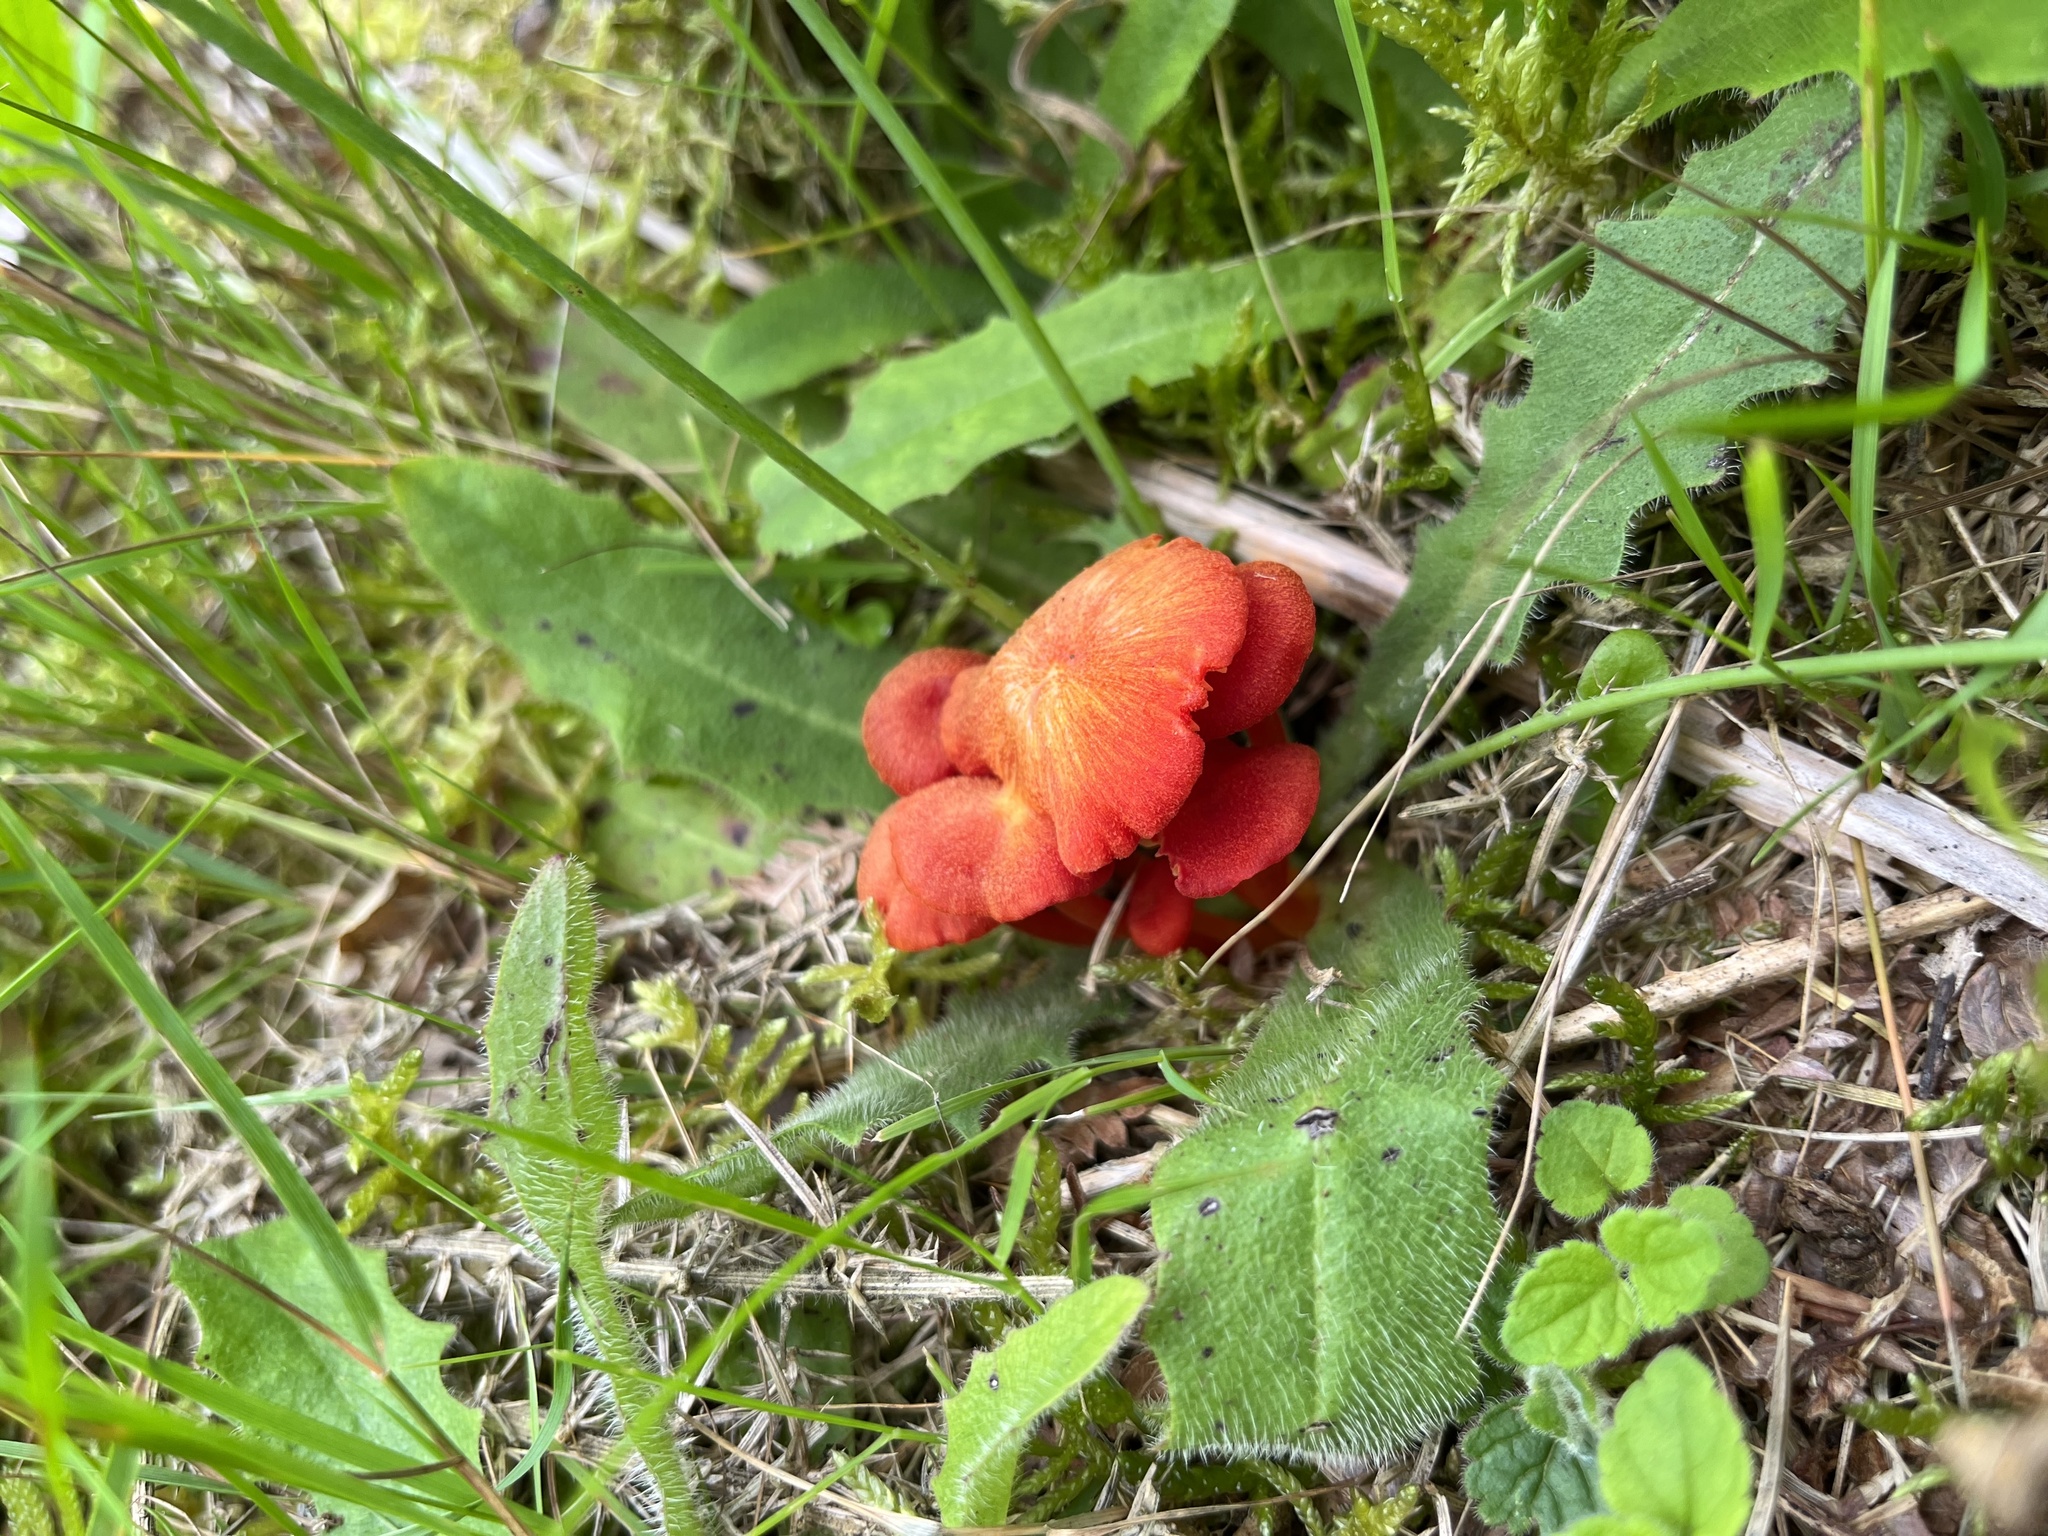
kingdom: Fungi
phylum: Basidiomycota
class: Agaricomycetes
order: Agaricales
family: Hygrophoraceae
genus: Hygrocybe
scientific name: Hygrocybe helobia
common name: Garlic waxcap
